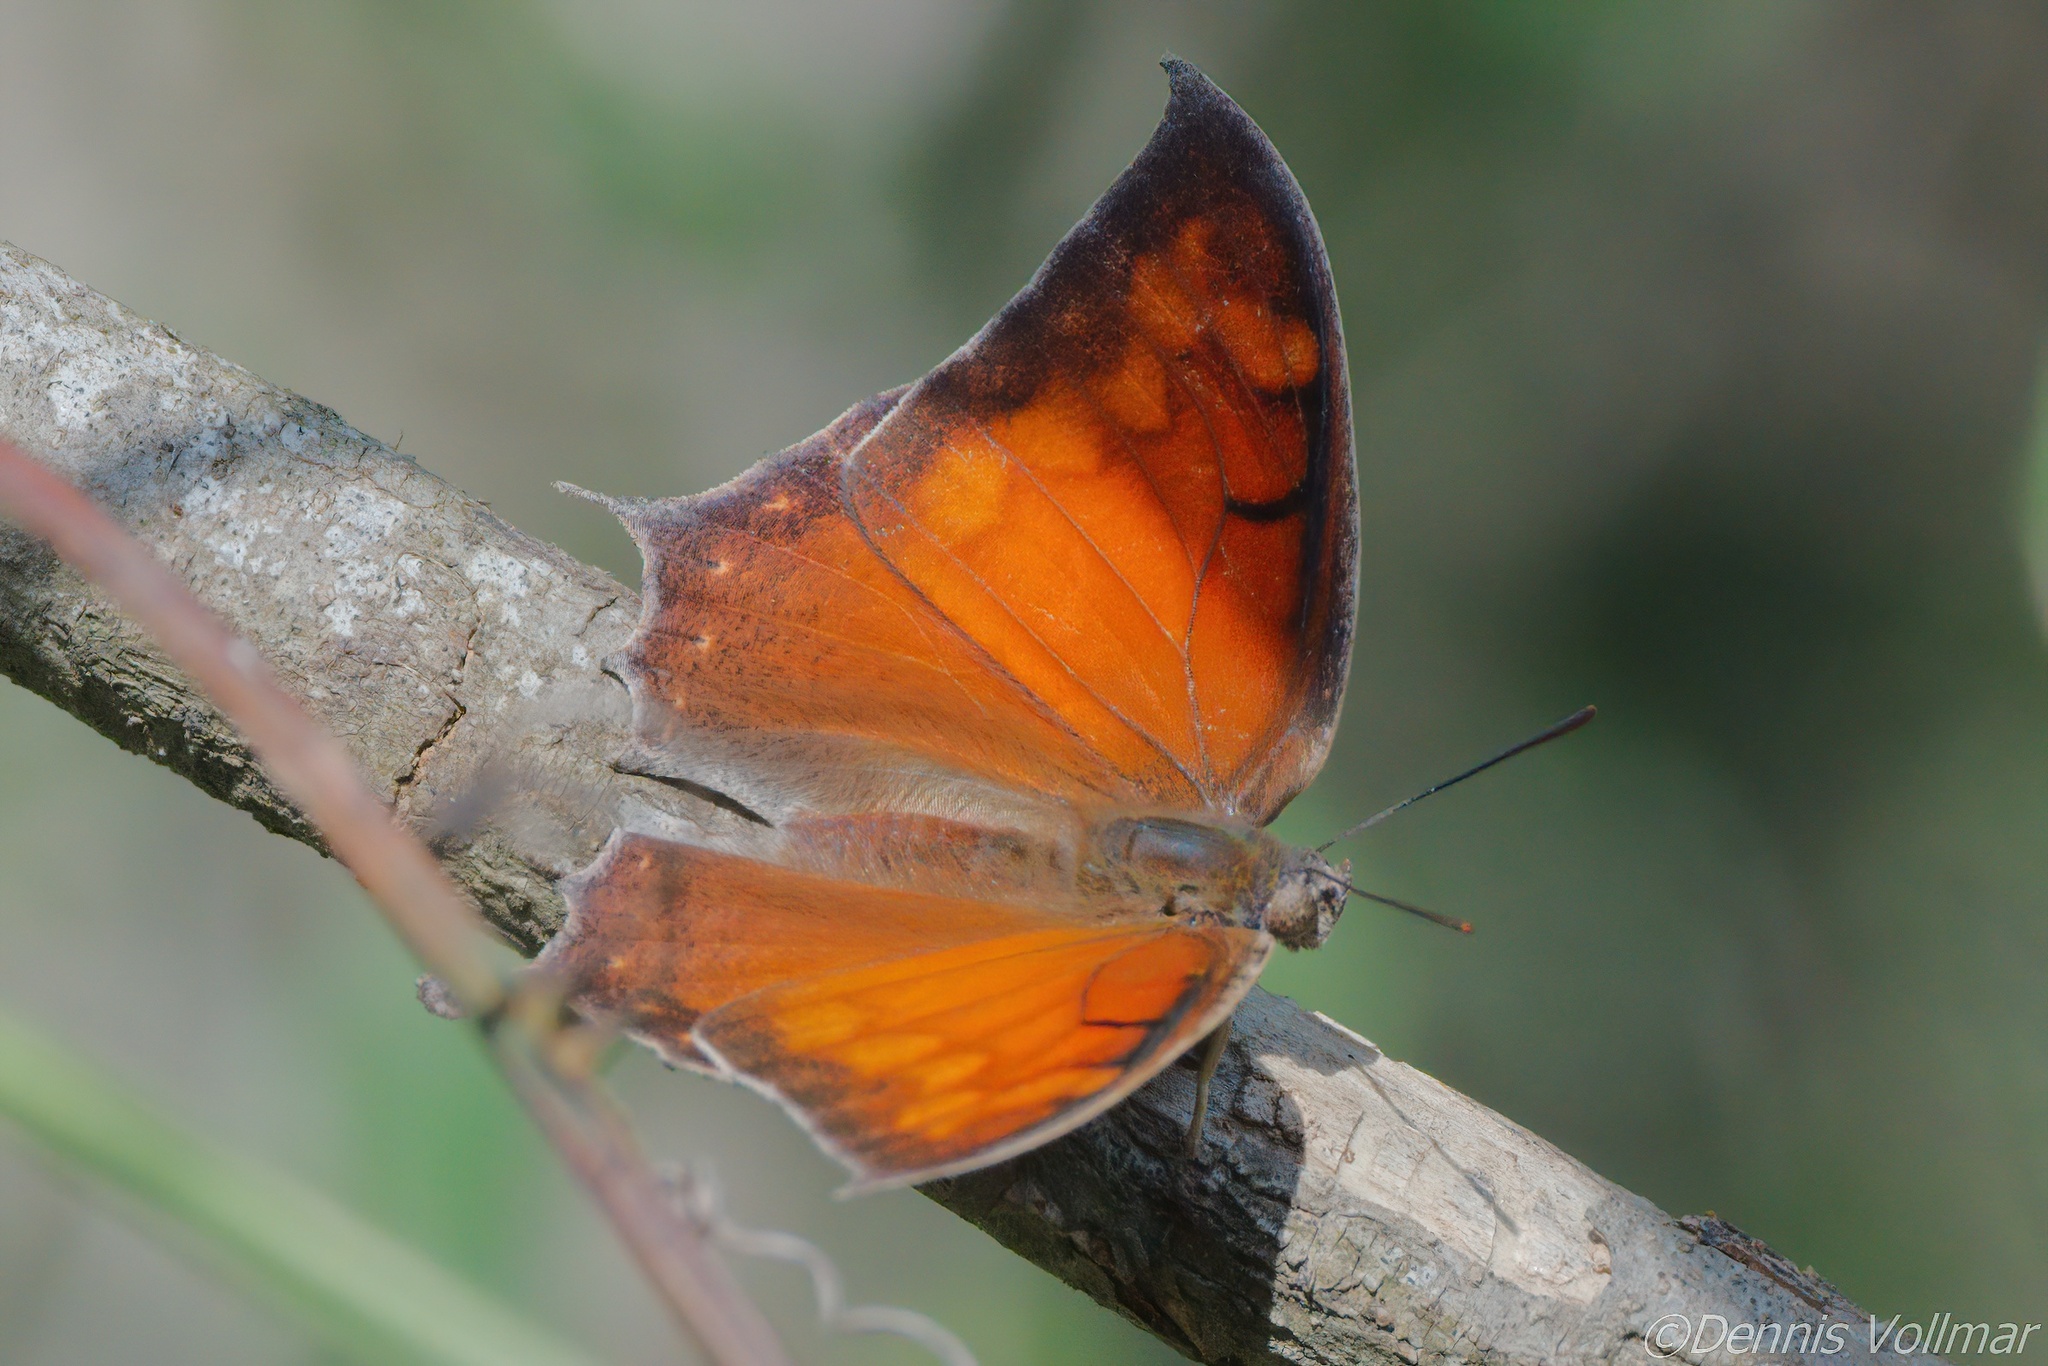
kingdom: Animalia
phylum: Arthropoda
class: Insecta
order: Lepidoptera
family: Nymphalidae
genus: Anaea
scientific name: Anaea aidea
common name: Tropical leafwing
